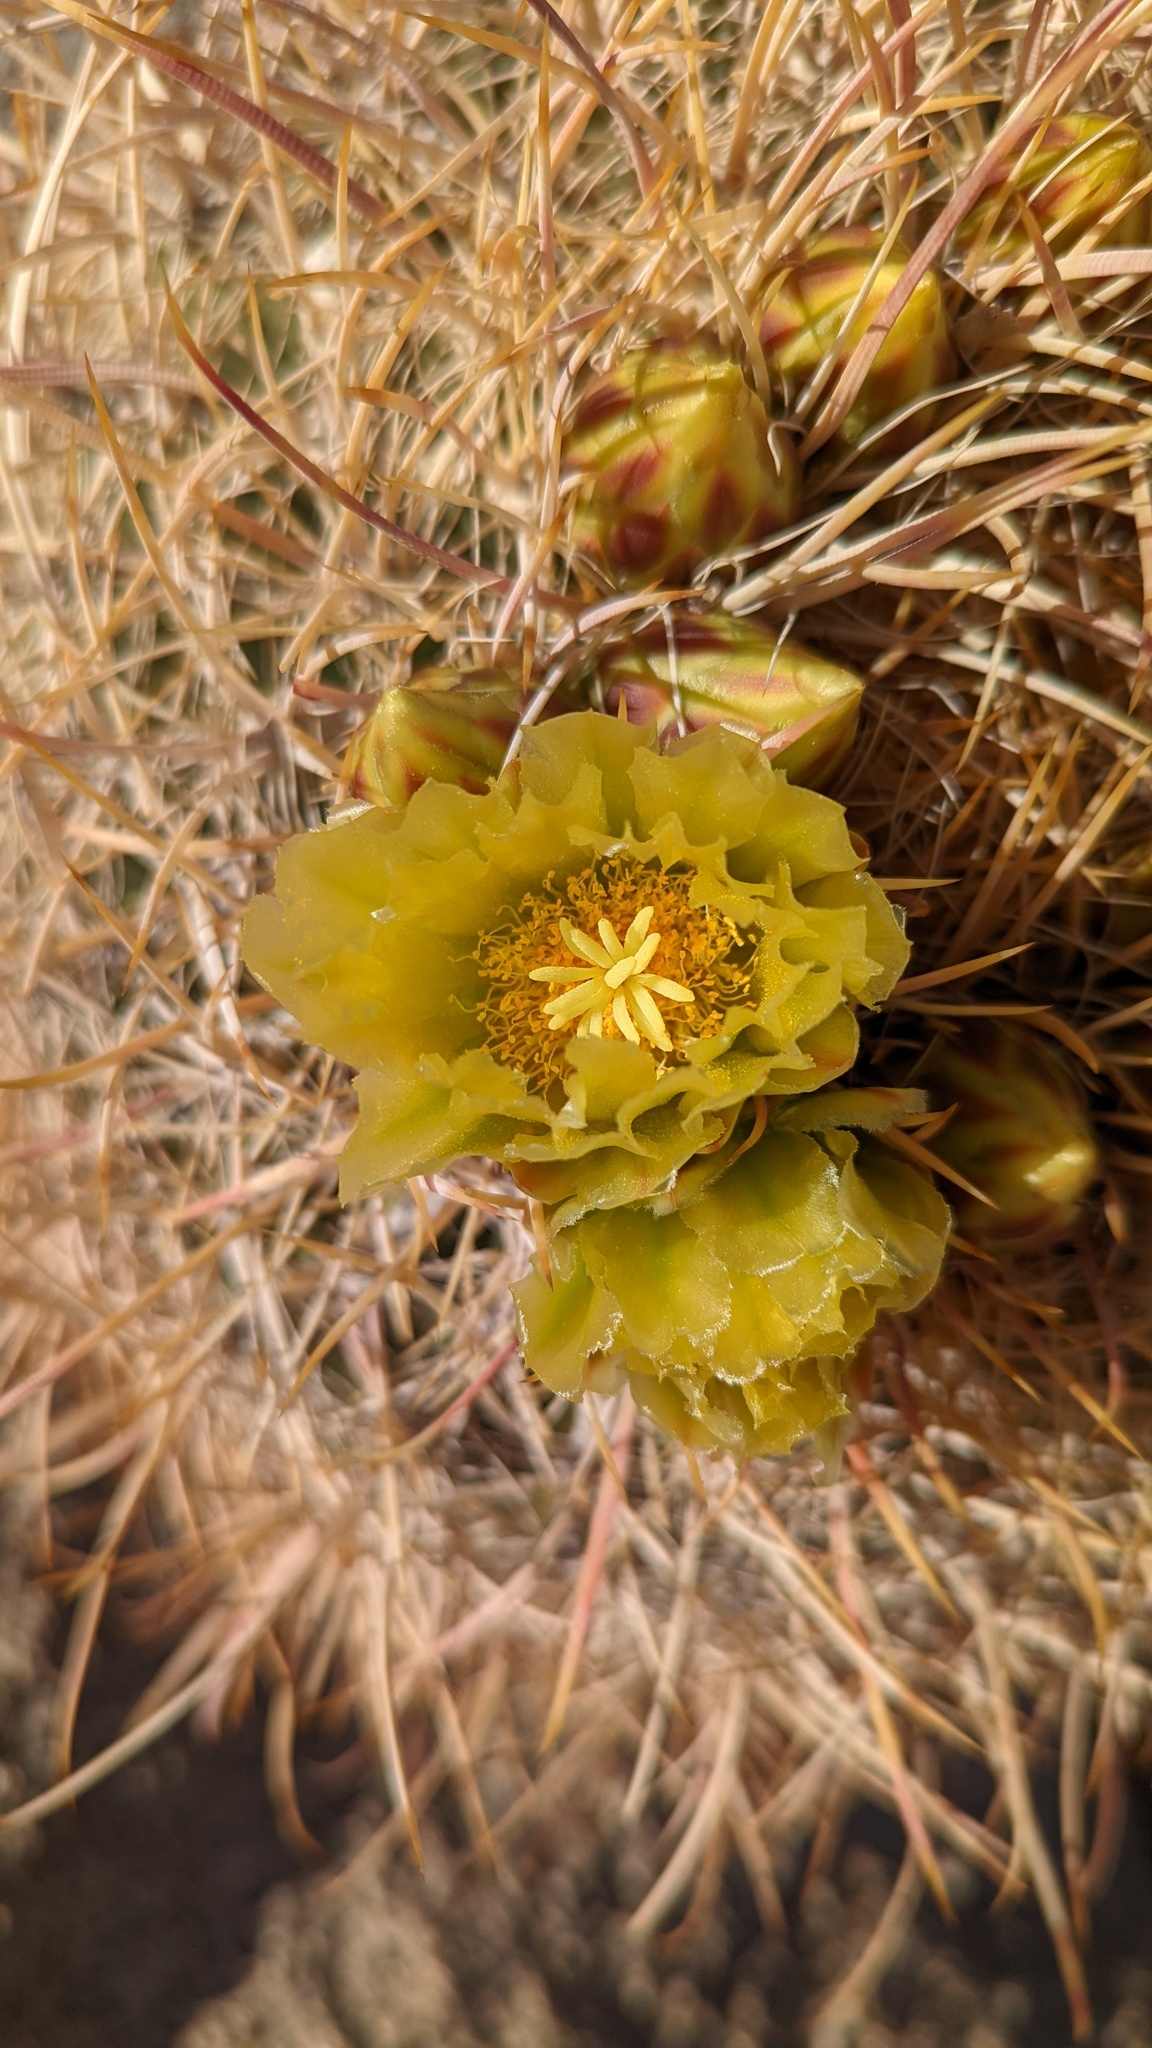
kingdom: Plantae
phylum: Tracheophyta
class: Magnoliopsida
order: Caryophyllales
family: Cactaceae
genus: Ferocactus
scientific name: Ferocactus cylindraceus
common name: California barrel cactus
